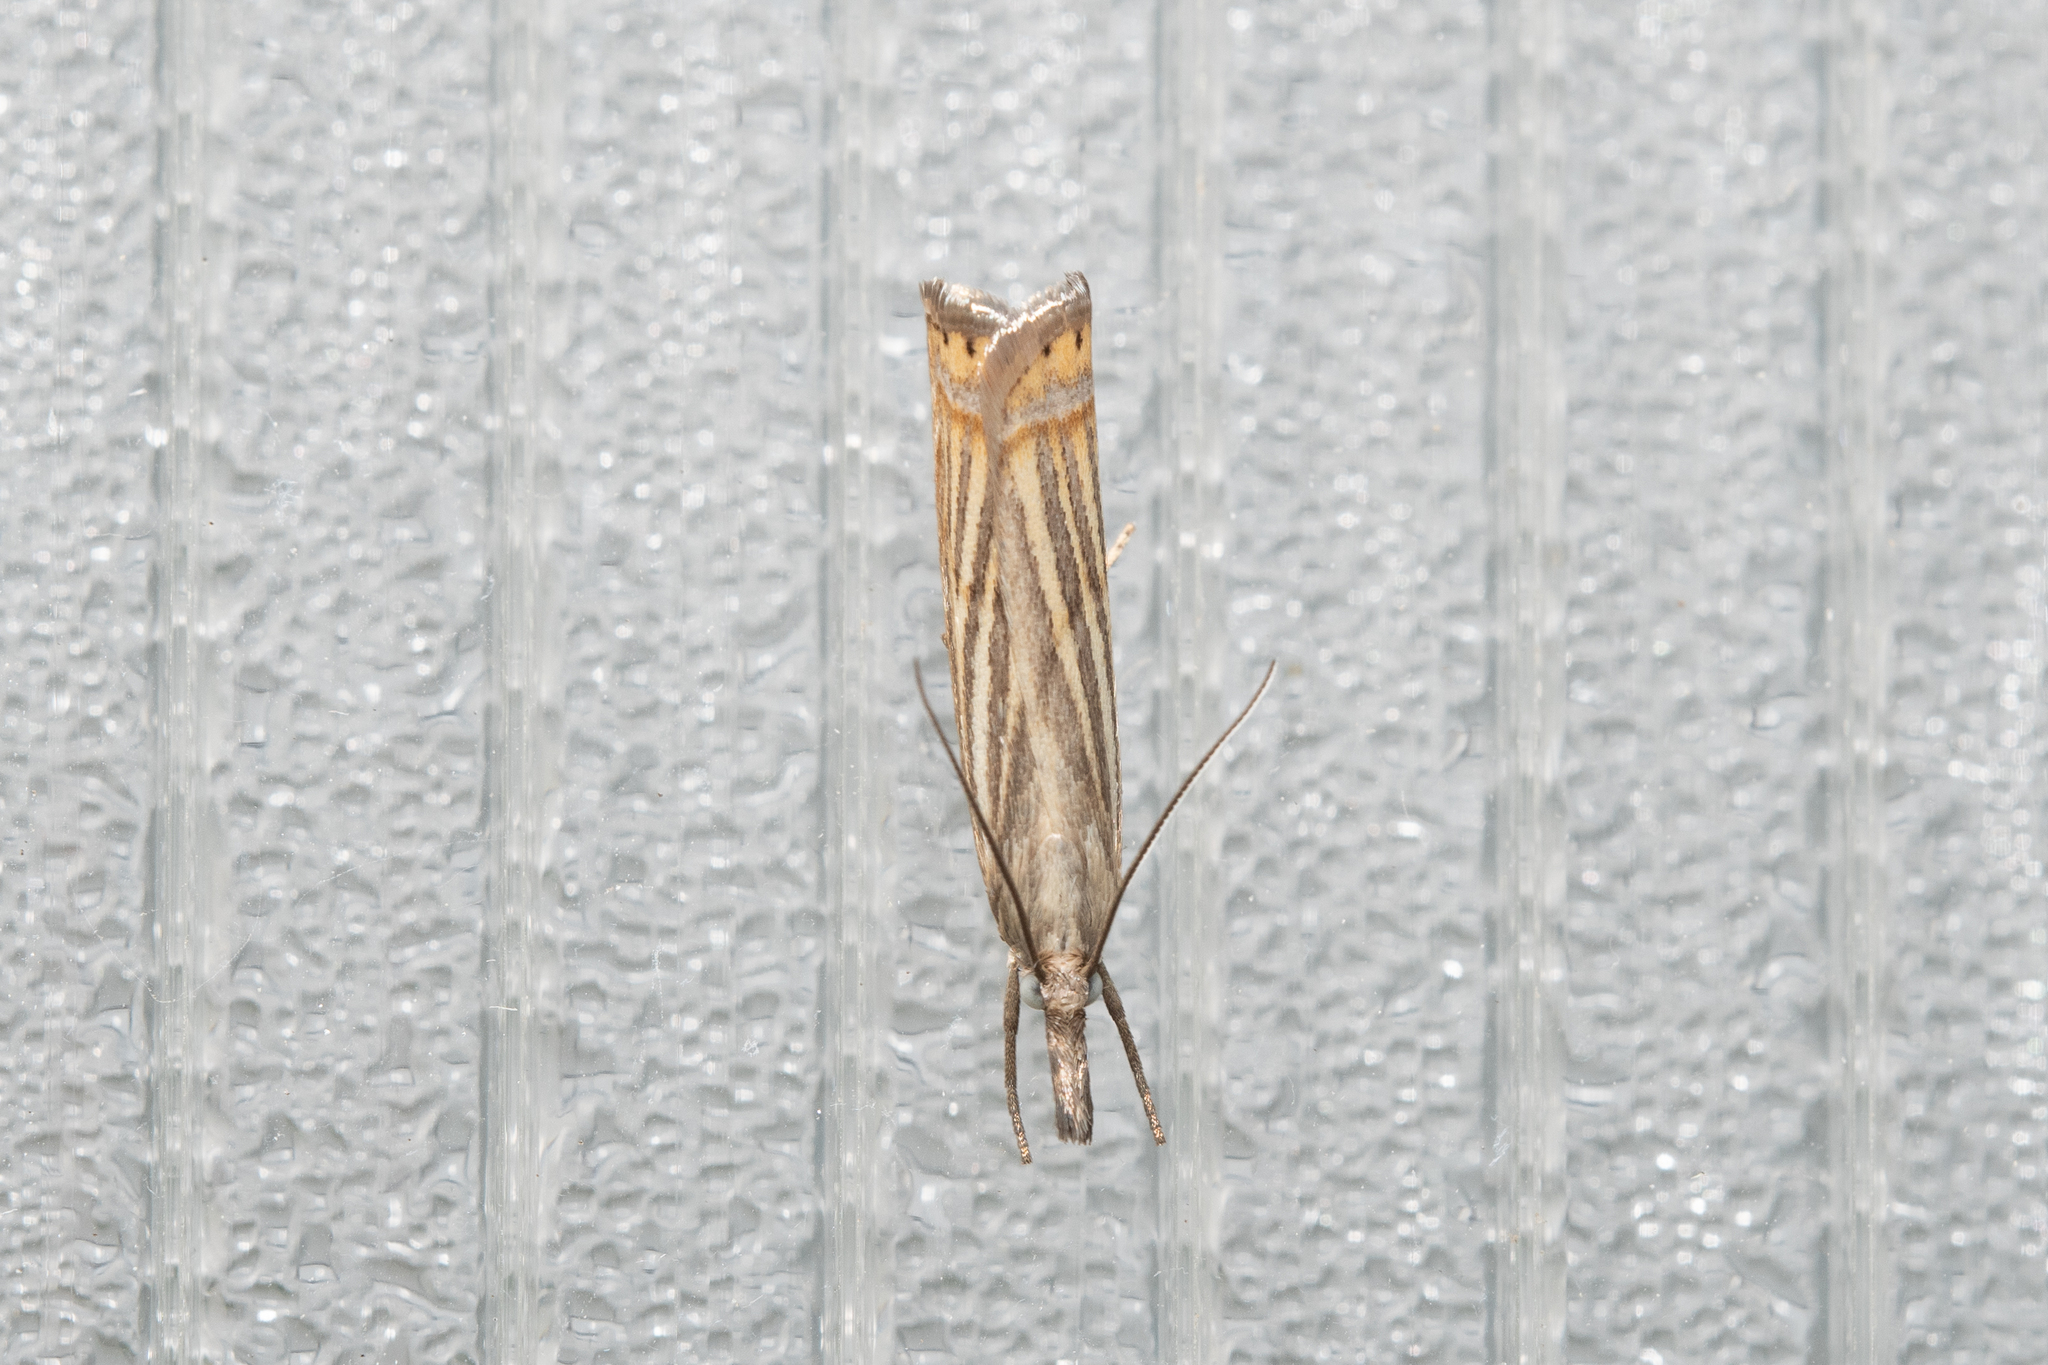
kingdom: Animalia
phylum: Arthropoda
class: Insecta
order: Lepidoptera
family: Crambidae
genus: Chrysoteuchia
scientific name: Chrysoteuchia culmella
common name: Garden grass-veneer
